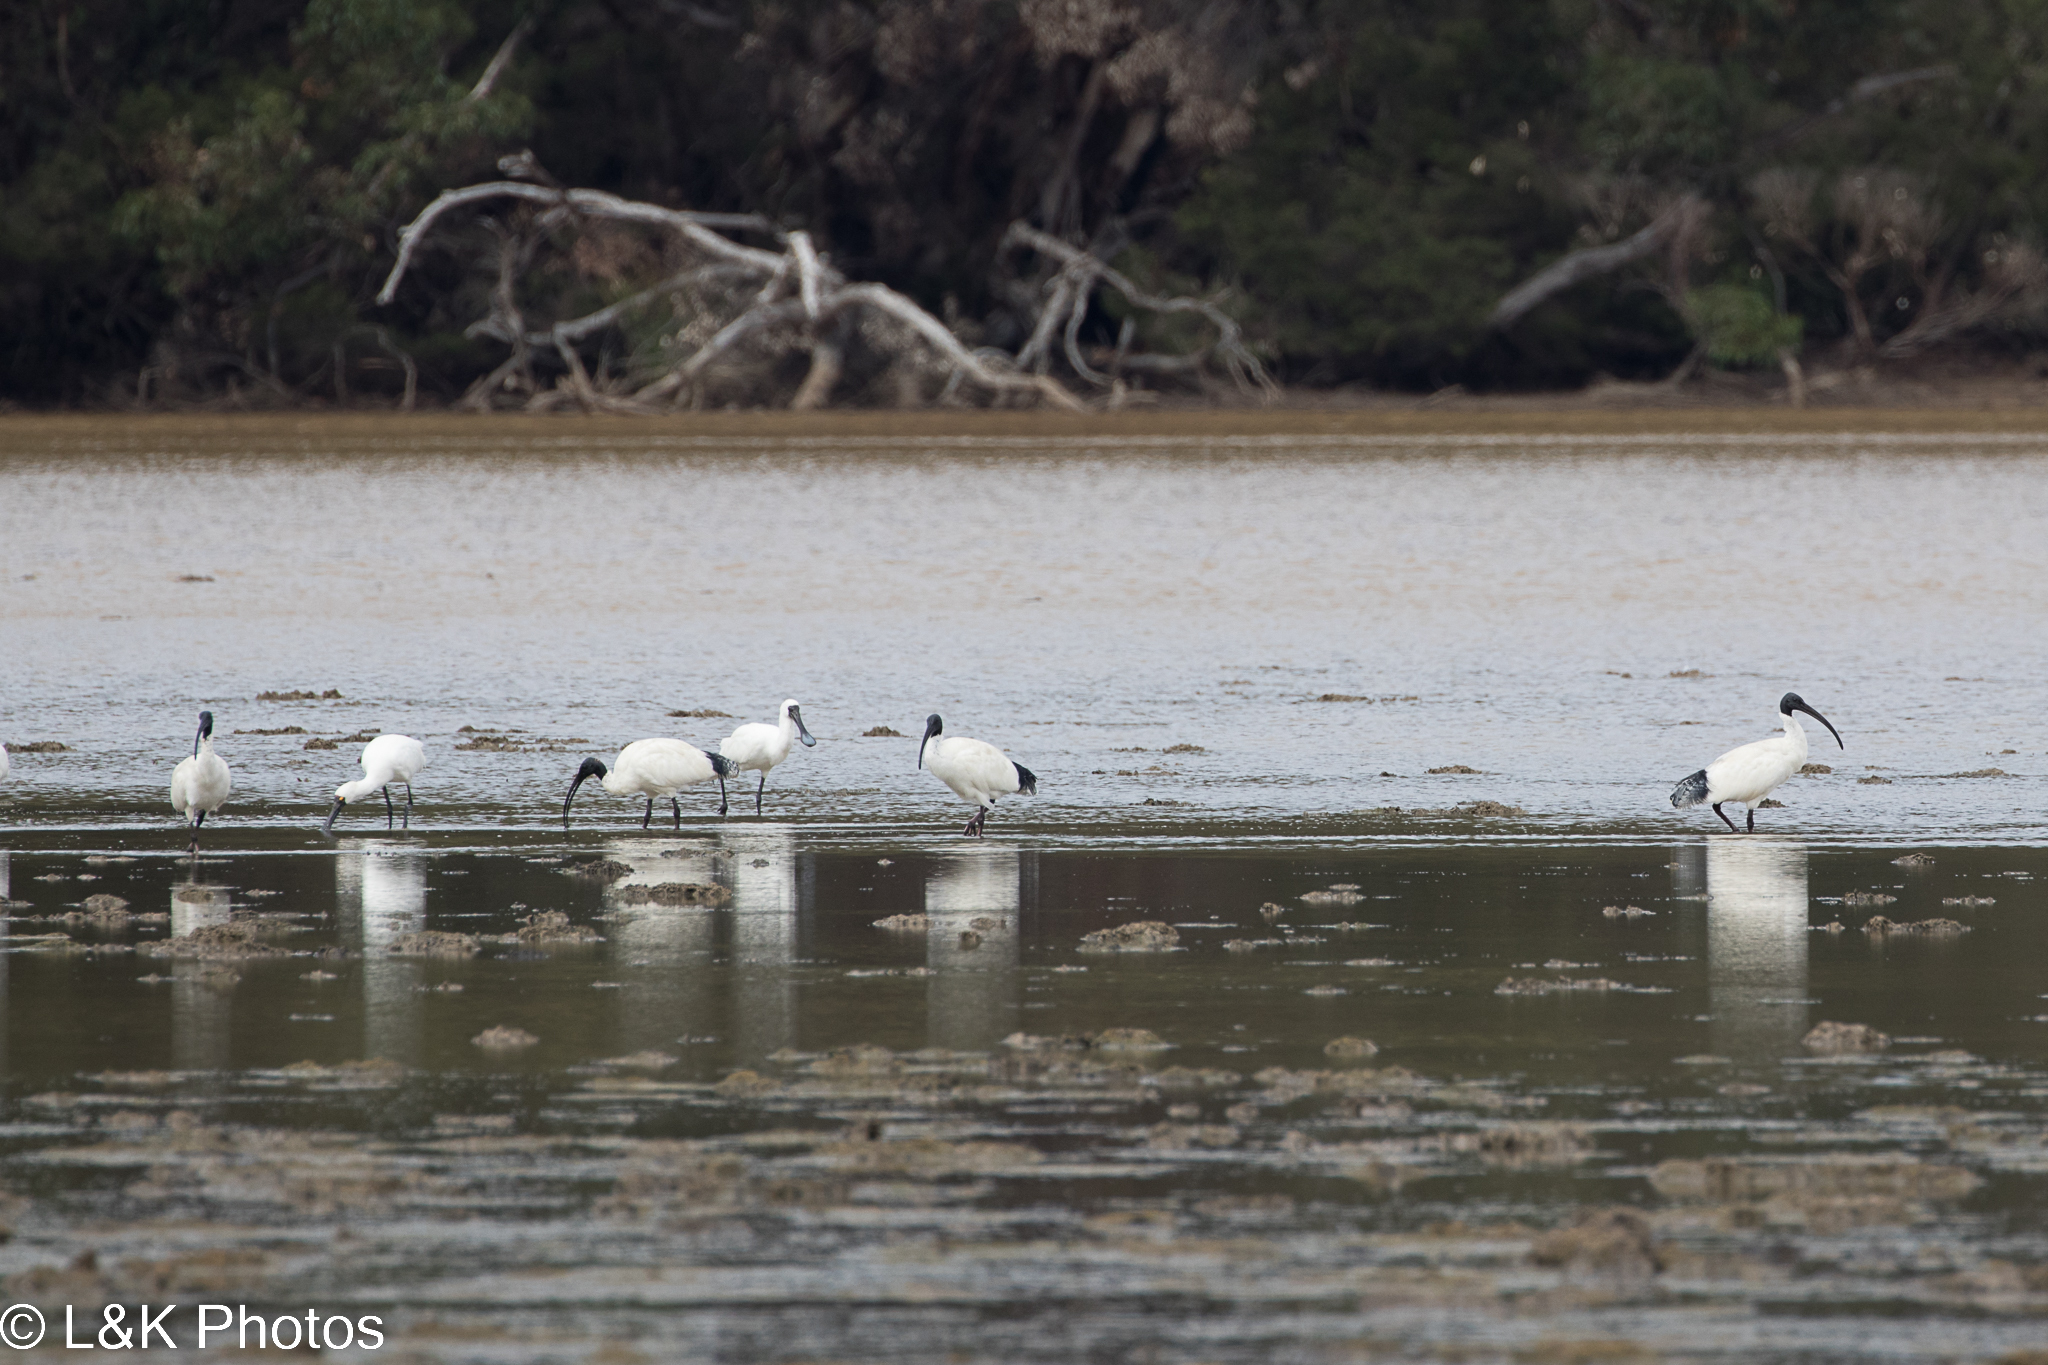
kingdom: Animalia
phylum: Chordata
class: Aves
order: Pelecaniformes
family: Threskiornithidae
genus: Platalea
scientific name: Platalea regia
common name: Royal spoonbill
